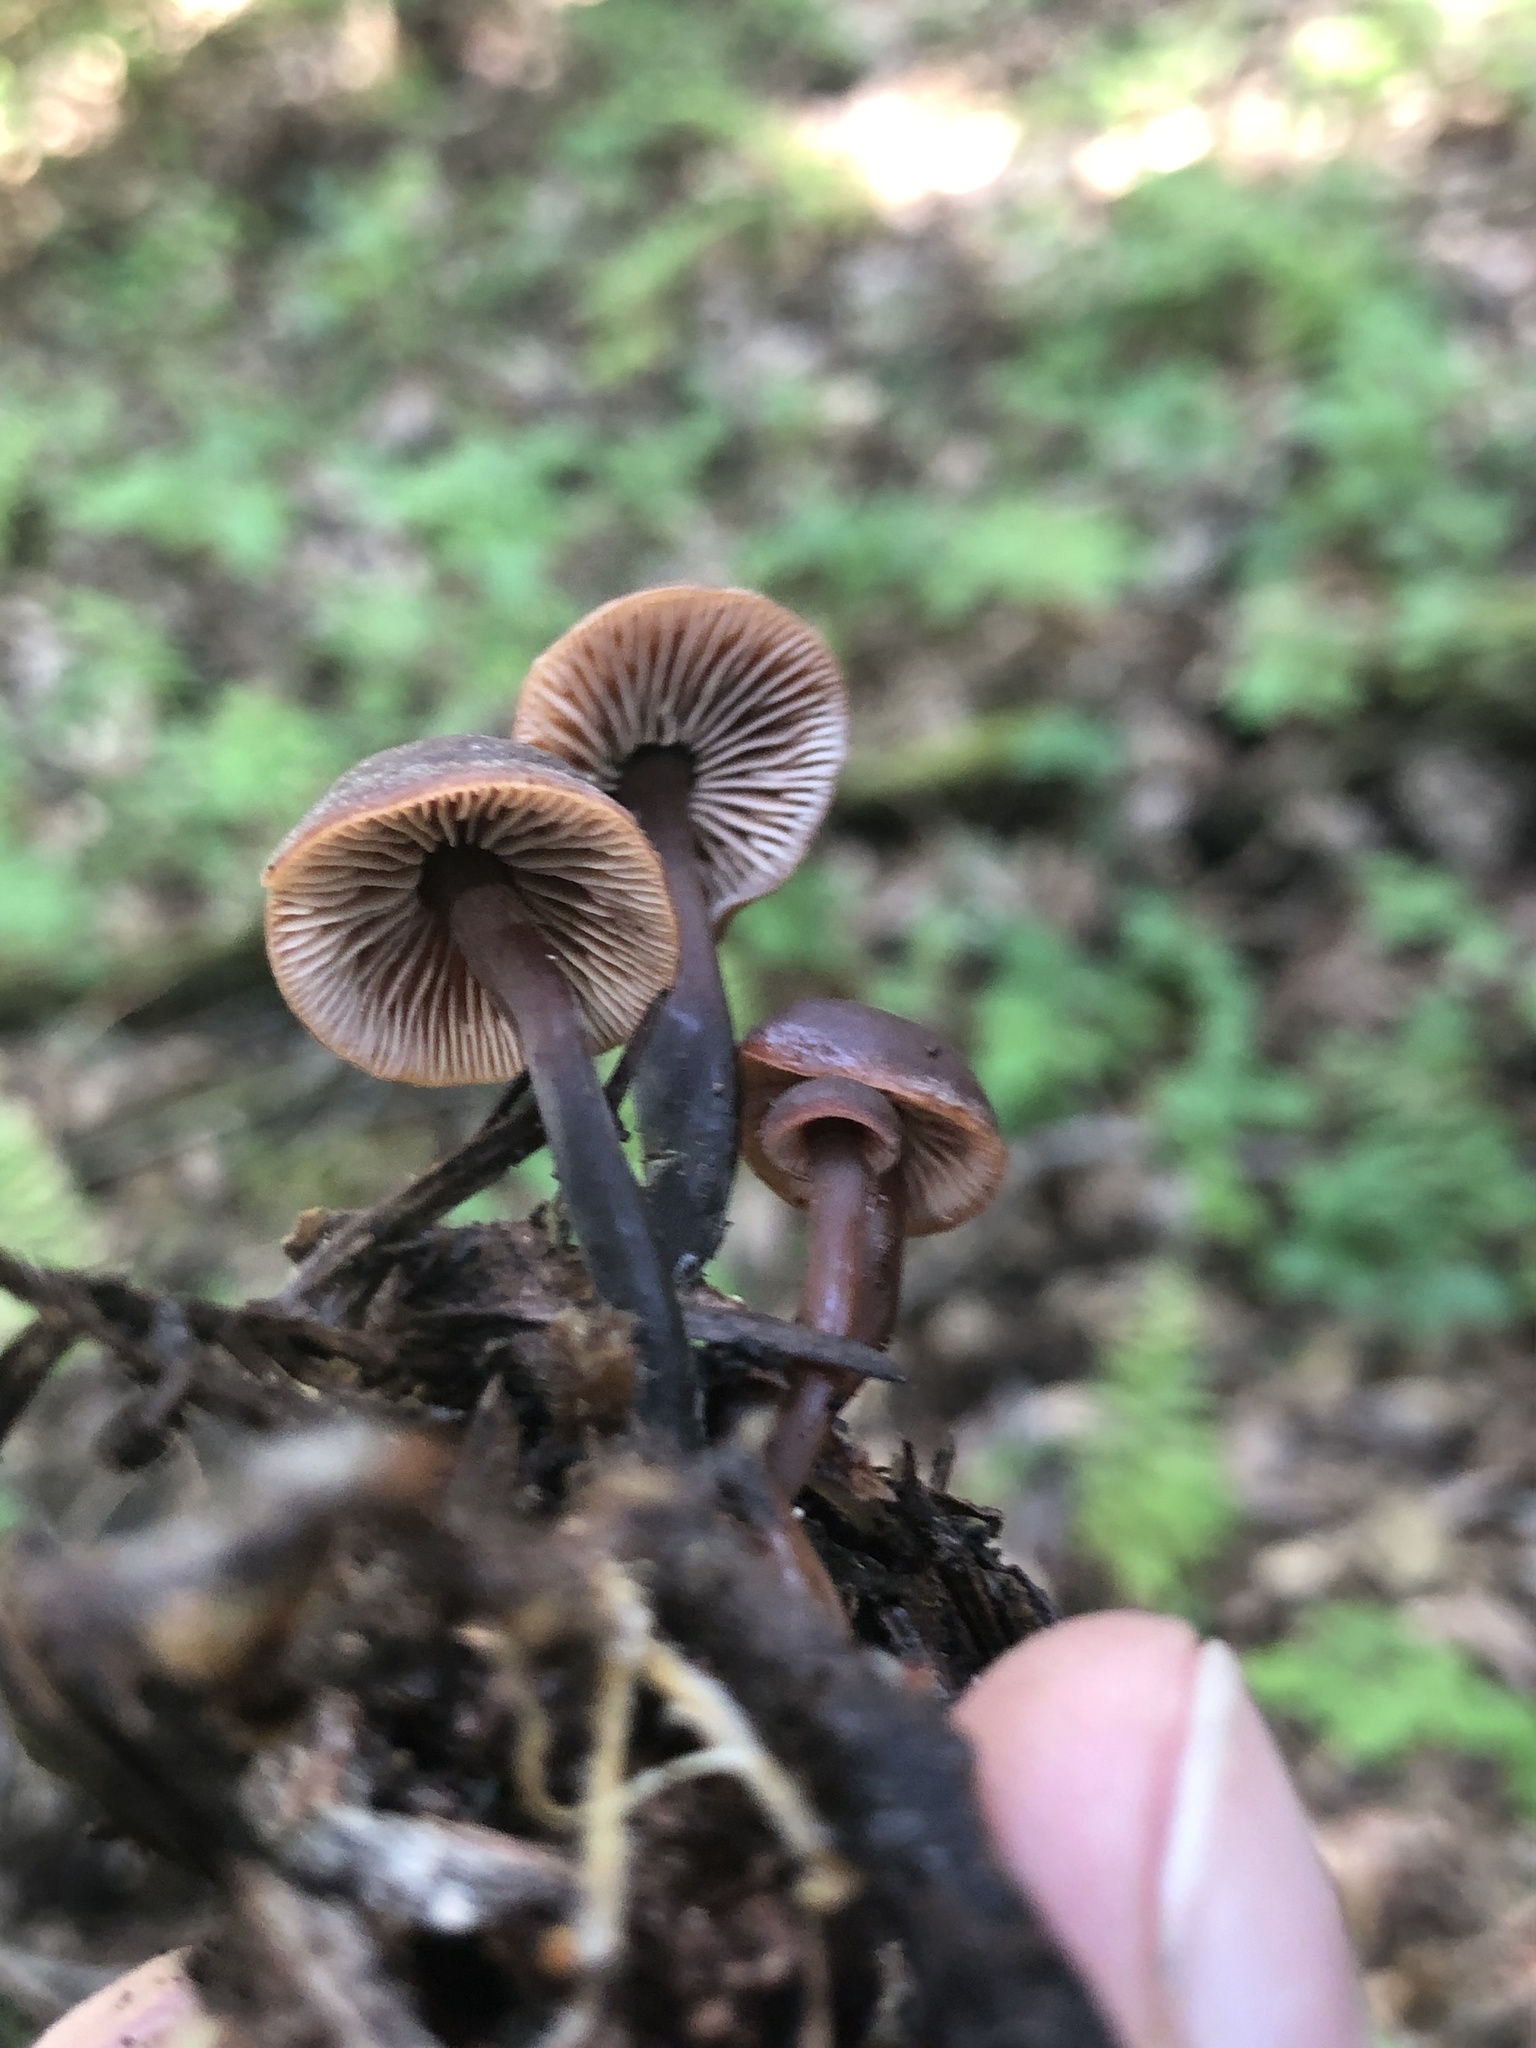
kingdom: Fungi
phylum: Basidiomycota
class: Agaricomycetes
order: Agaricales
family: Omphalotaceae
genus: Gymnopus
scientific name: Gymnopus brassicolens
